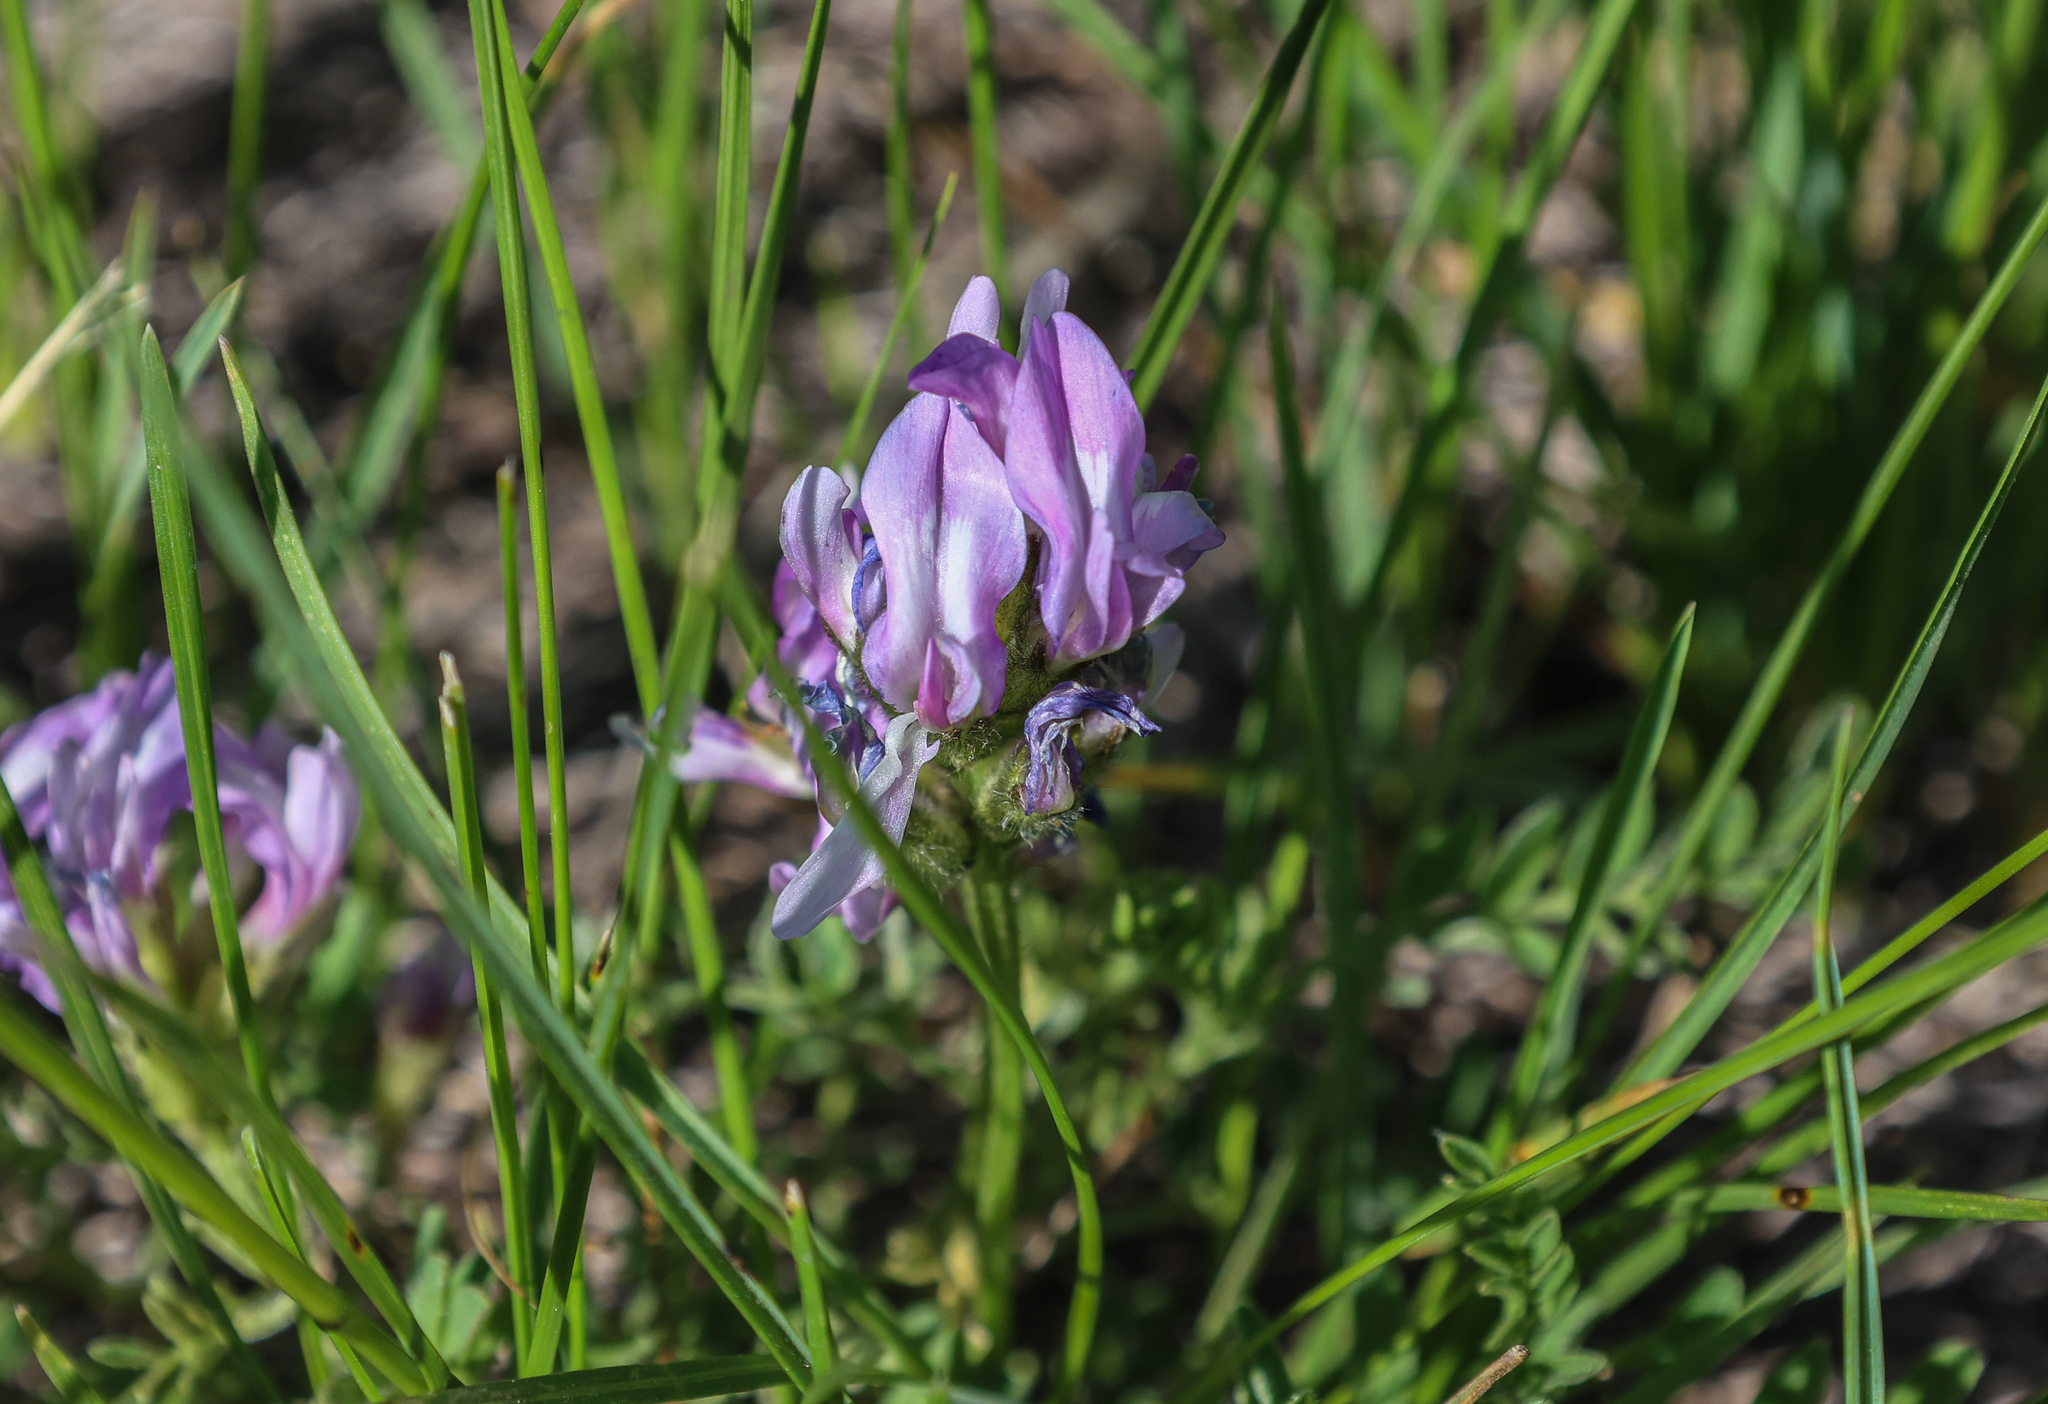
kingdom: Plantae
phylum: Tracheophyta
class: Magnoliopsida
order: Fabales
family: Fabaceae
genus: Astragalus
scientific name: Astragalus agrestis
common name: Field milk-vetch
